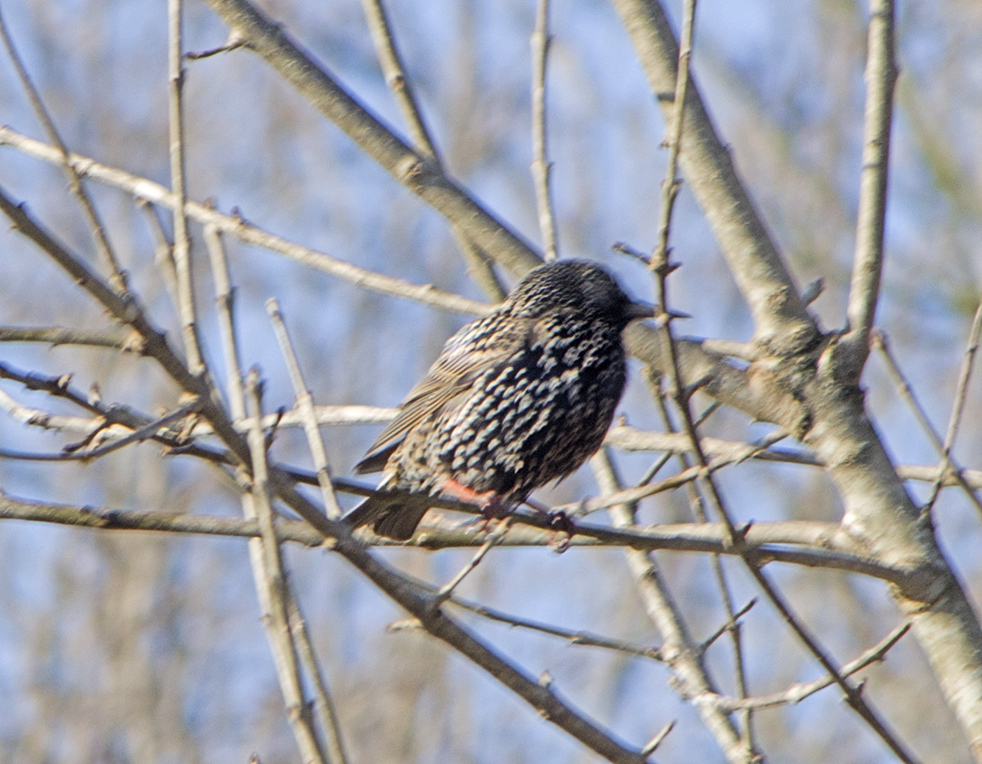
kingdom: Animalia
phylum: Chordata
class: Aves
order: Passeriformes
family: Sturnidae
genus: Sturnus
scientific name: Sturnus vulgaris
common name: Common starling
